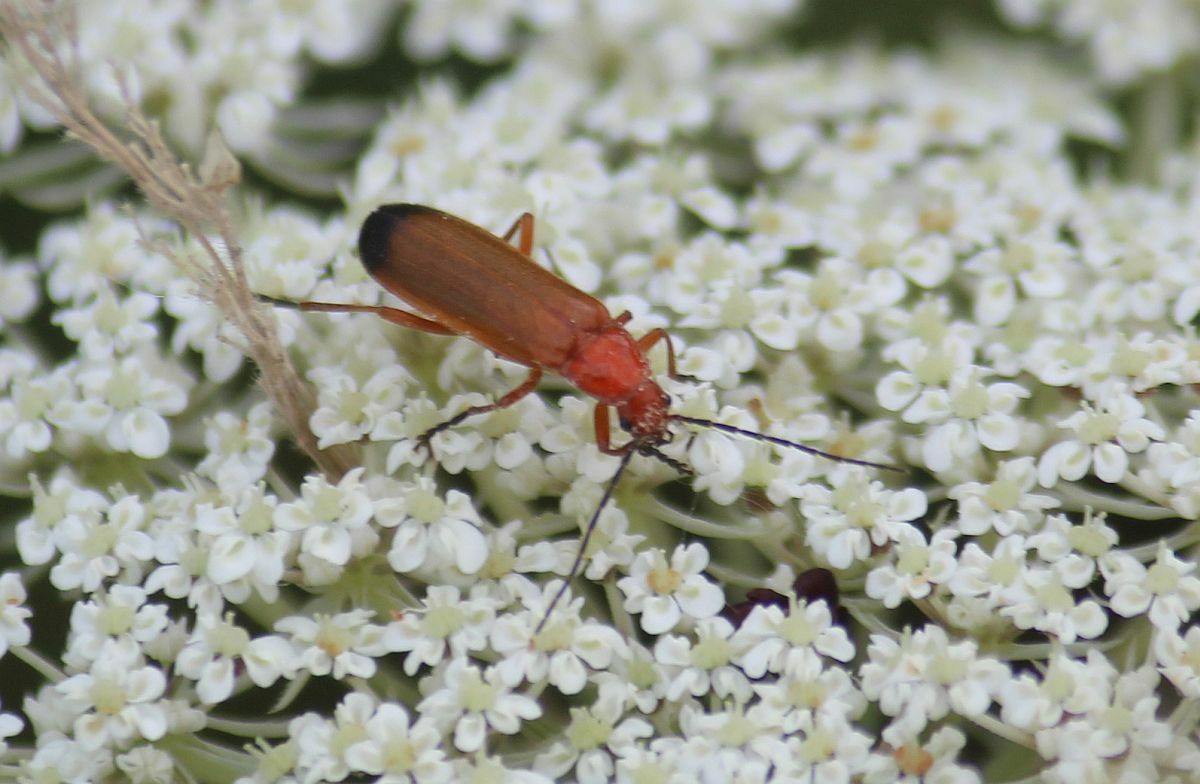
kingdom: Animalia
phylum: Arthropoda
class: Insecta
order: Coleoptera
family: Cantharidae
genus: Rhagonycha
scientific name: Rhagonycha fulva
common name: Common red soldier beetle
